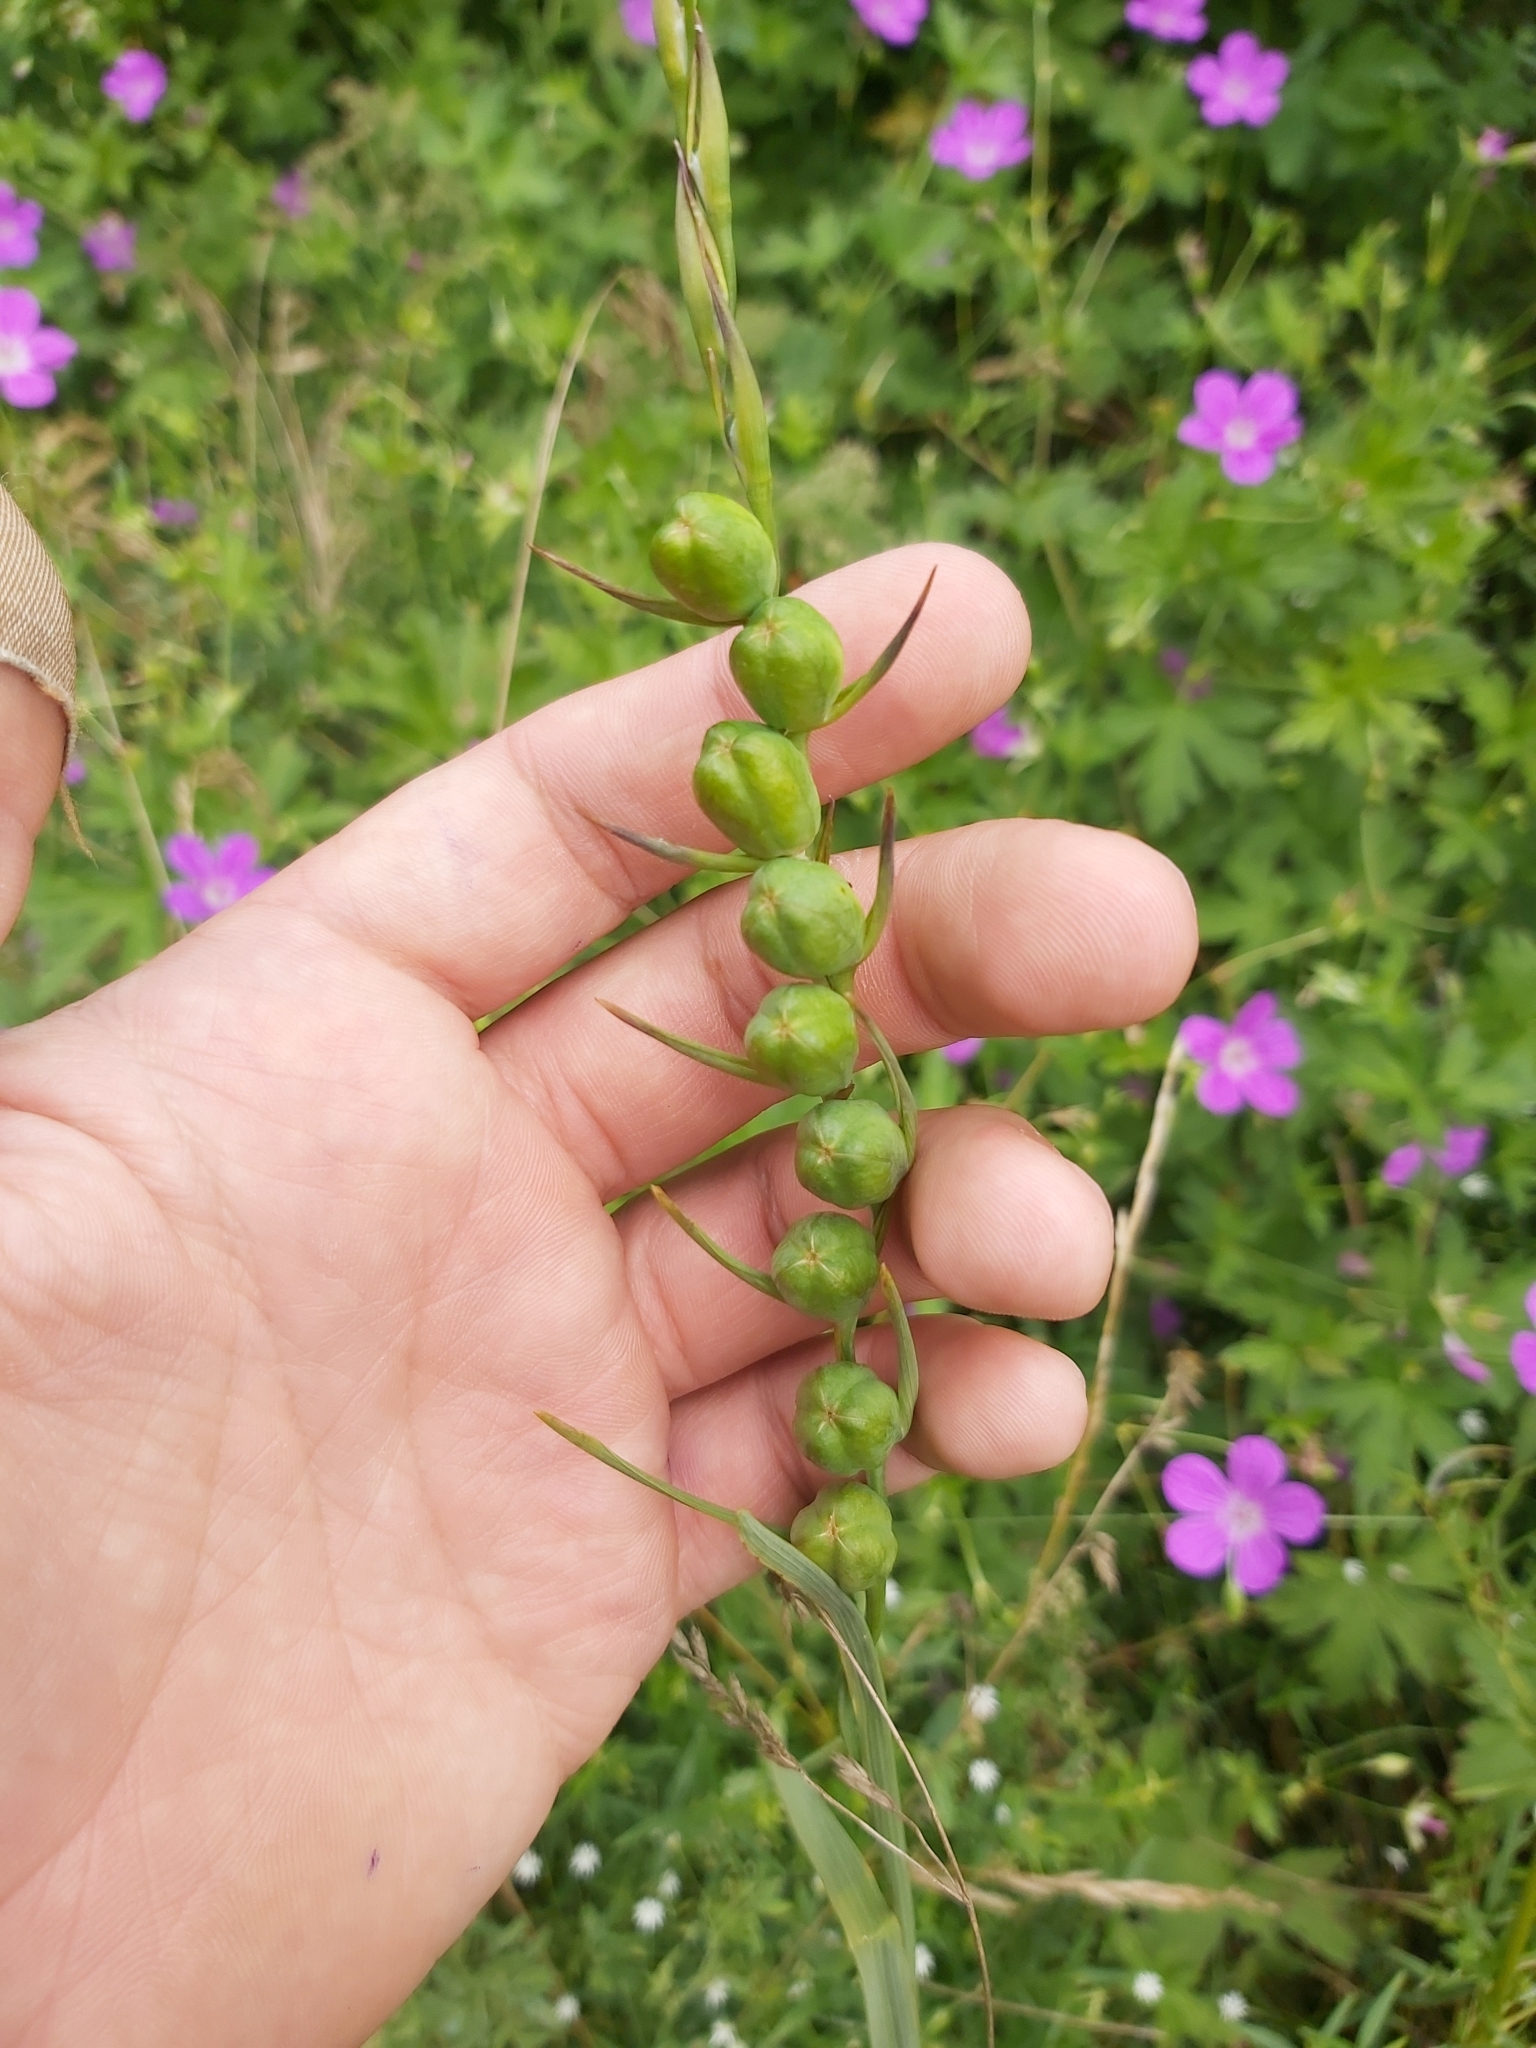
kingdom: Plantae
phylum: Tracheophyta
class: Liliopsida
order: Asparagales
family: Iridaceae
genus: Gladiolus
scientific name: Gladiolus imbricatus
